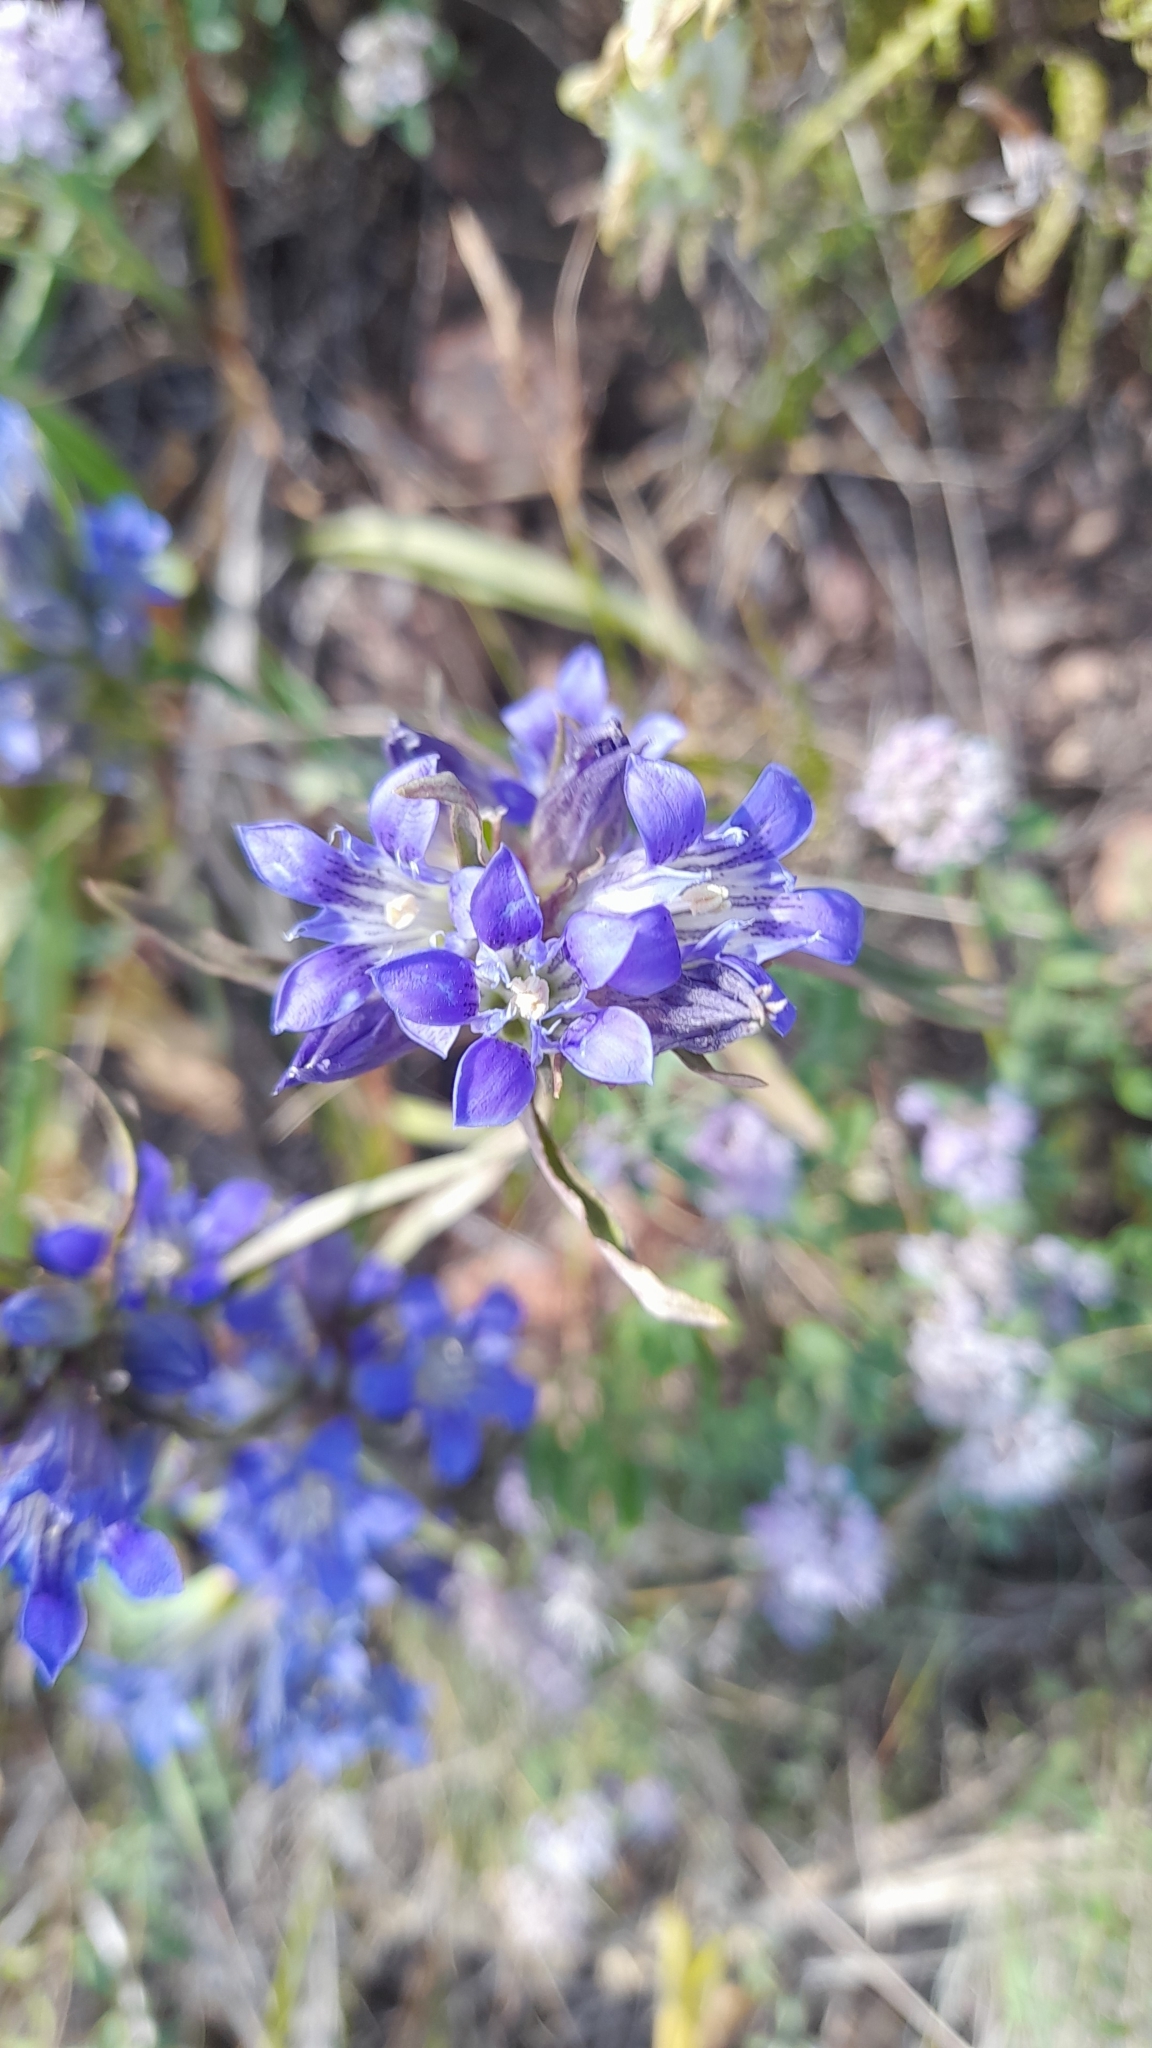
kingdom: Plantae
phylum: Tracheophyta
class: Magnoliopsida
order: Gentianales
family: Gentianaceae
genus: Gentiana
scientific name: Gentiana tianschanica
